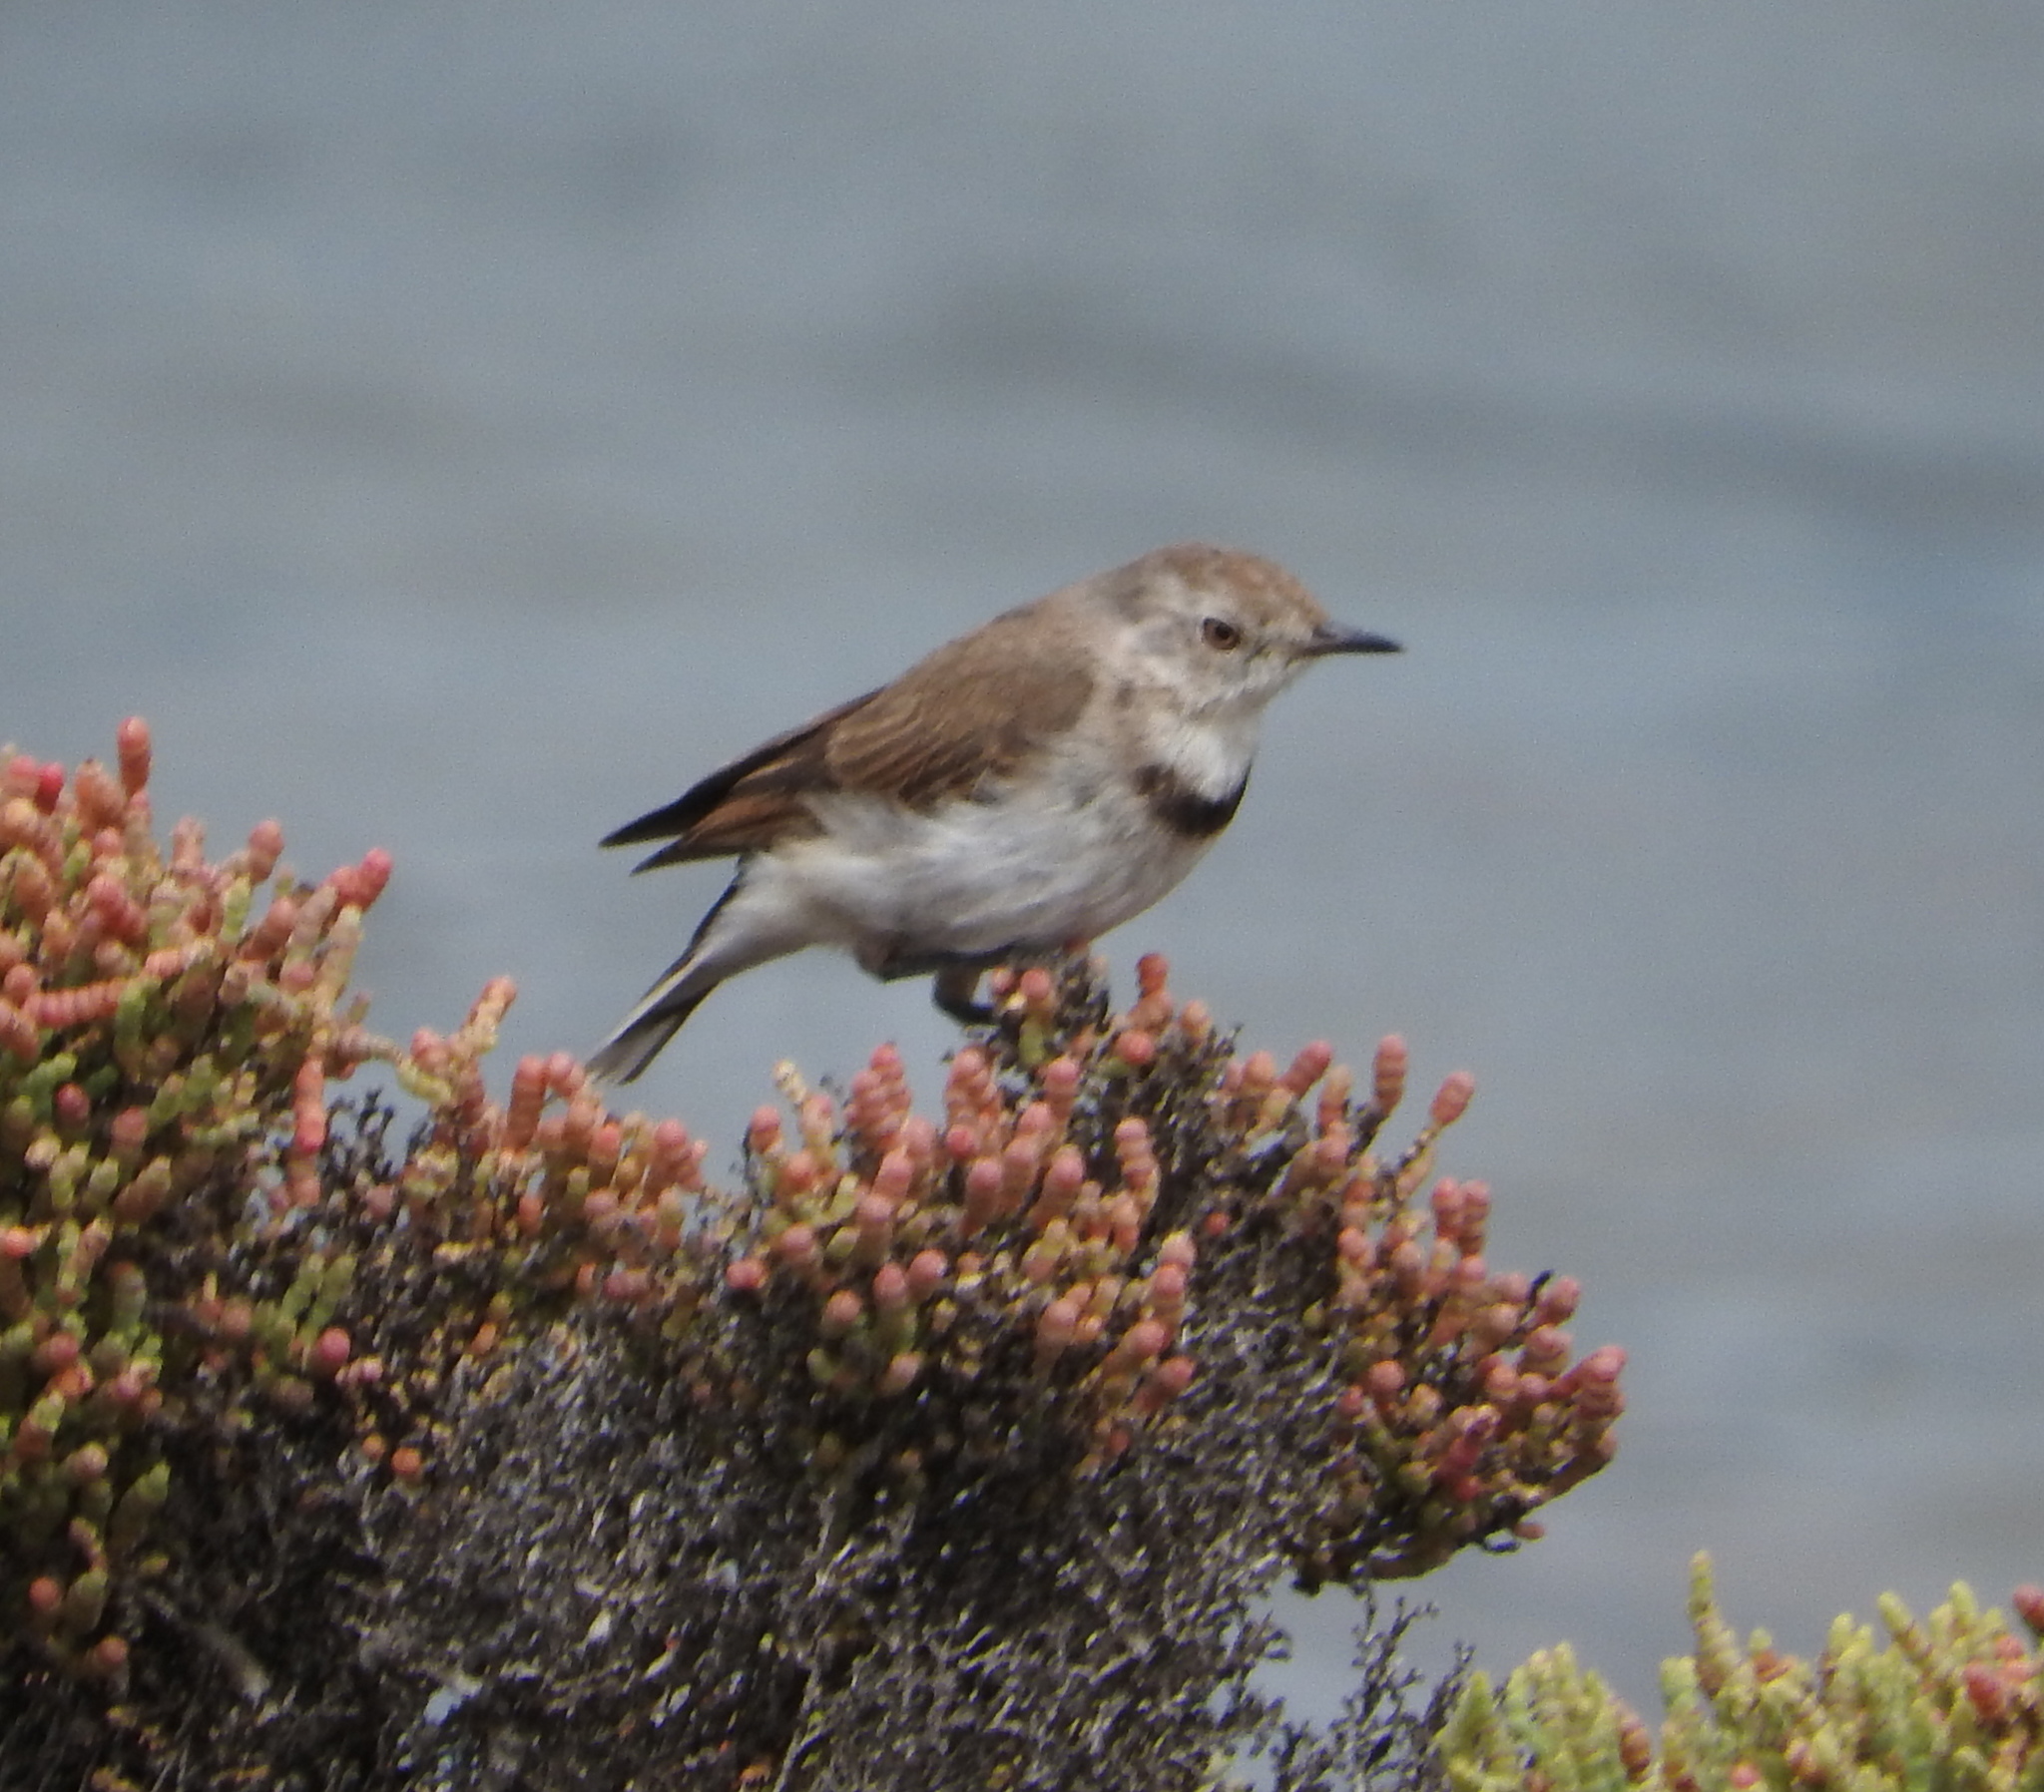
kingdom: Animalia
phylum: Chordata
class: Aves
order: Passeriformes
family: Meliphagidae
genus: Epthianura
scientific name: Epthianura albifrons
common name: White-fronted chat
